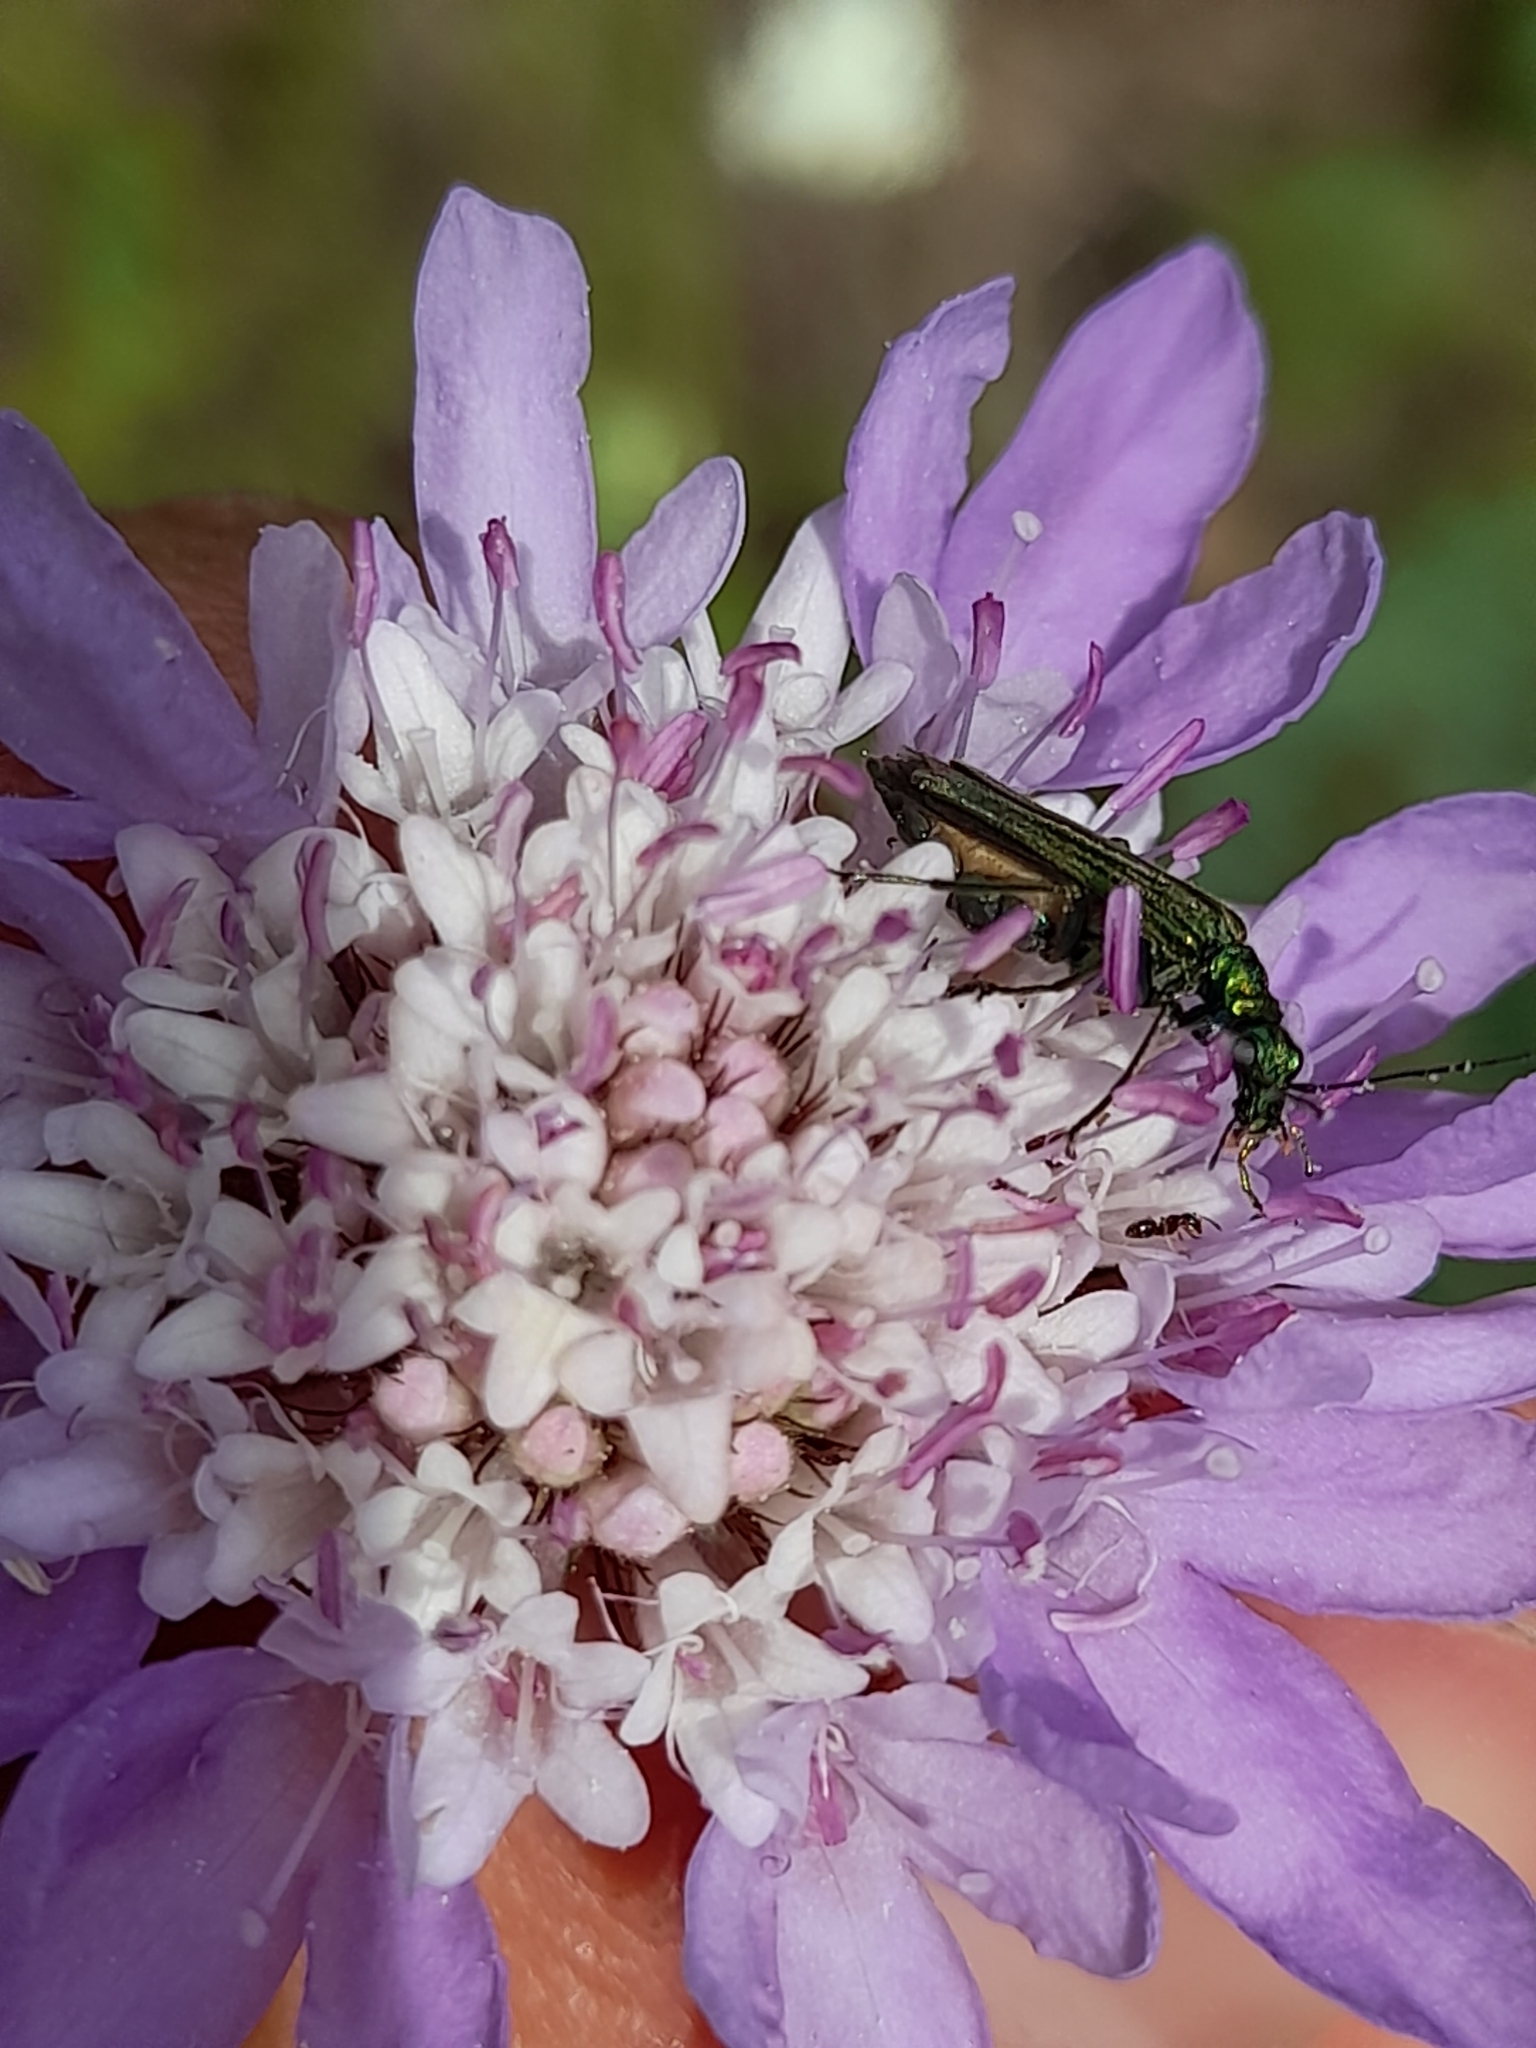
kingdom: Animalia
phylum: Arthropoda
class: Insecta
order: Coleoptera
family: Oedemeridae
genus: Oedemera
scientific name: Oedemera nobilis
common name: Swollen-thighed beetle
